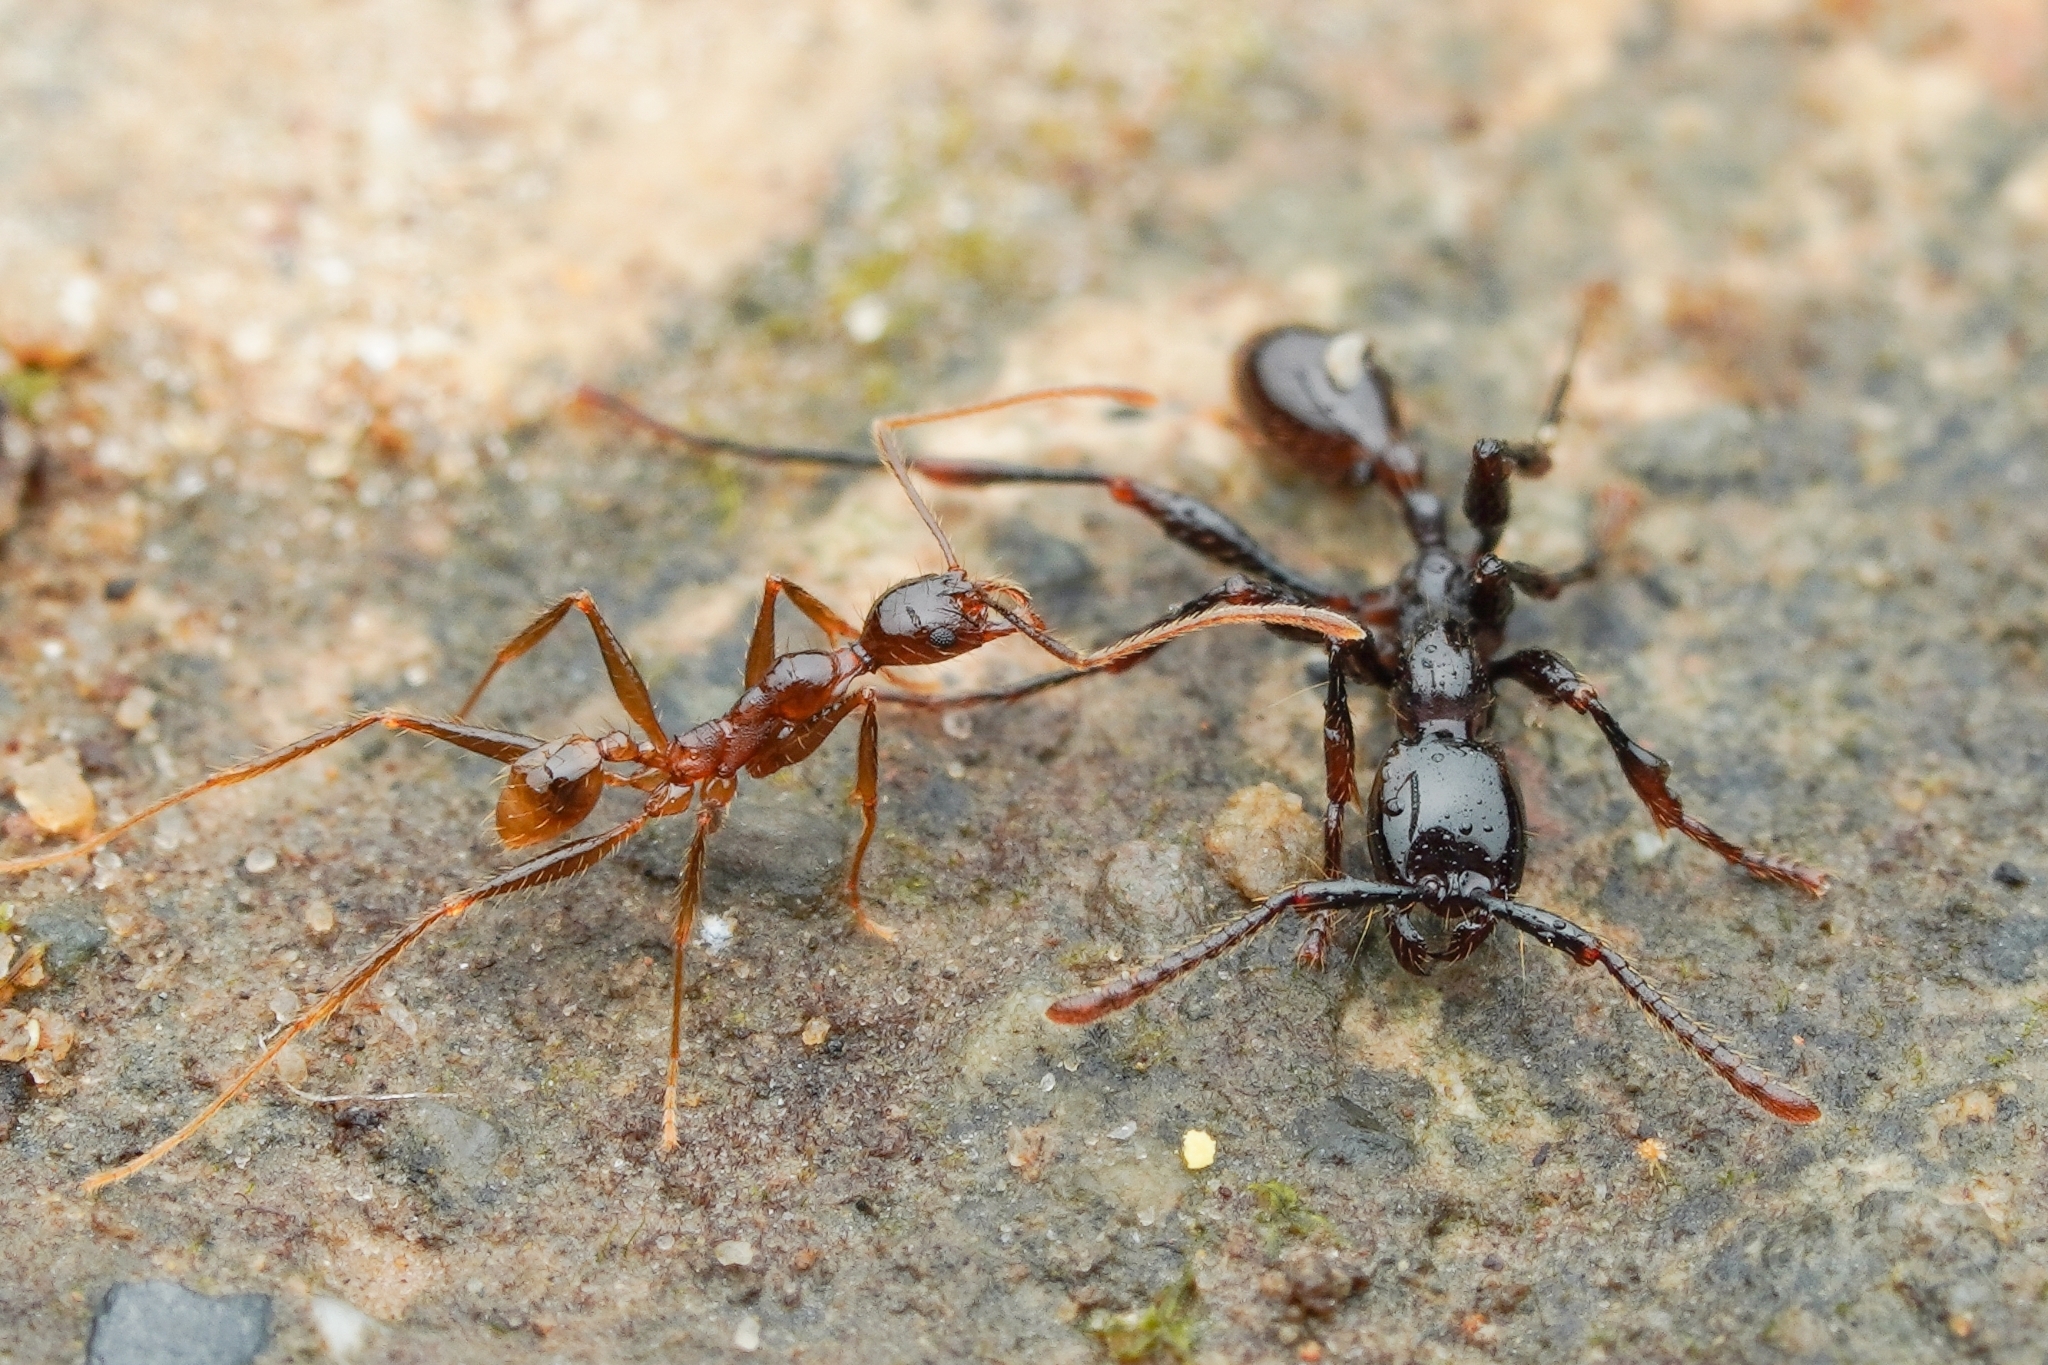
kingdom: Animalia
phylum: Arthropoda
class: Insecta
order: Hymenoptera
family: Formicidae
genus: Aenictus
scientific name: Aenictus pfeifferi
